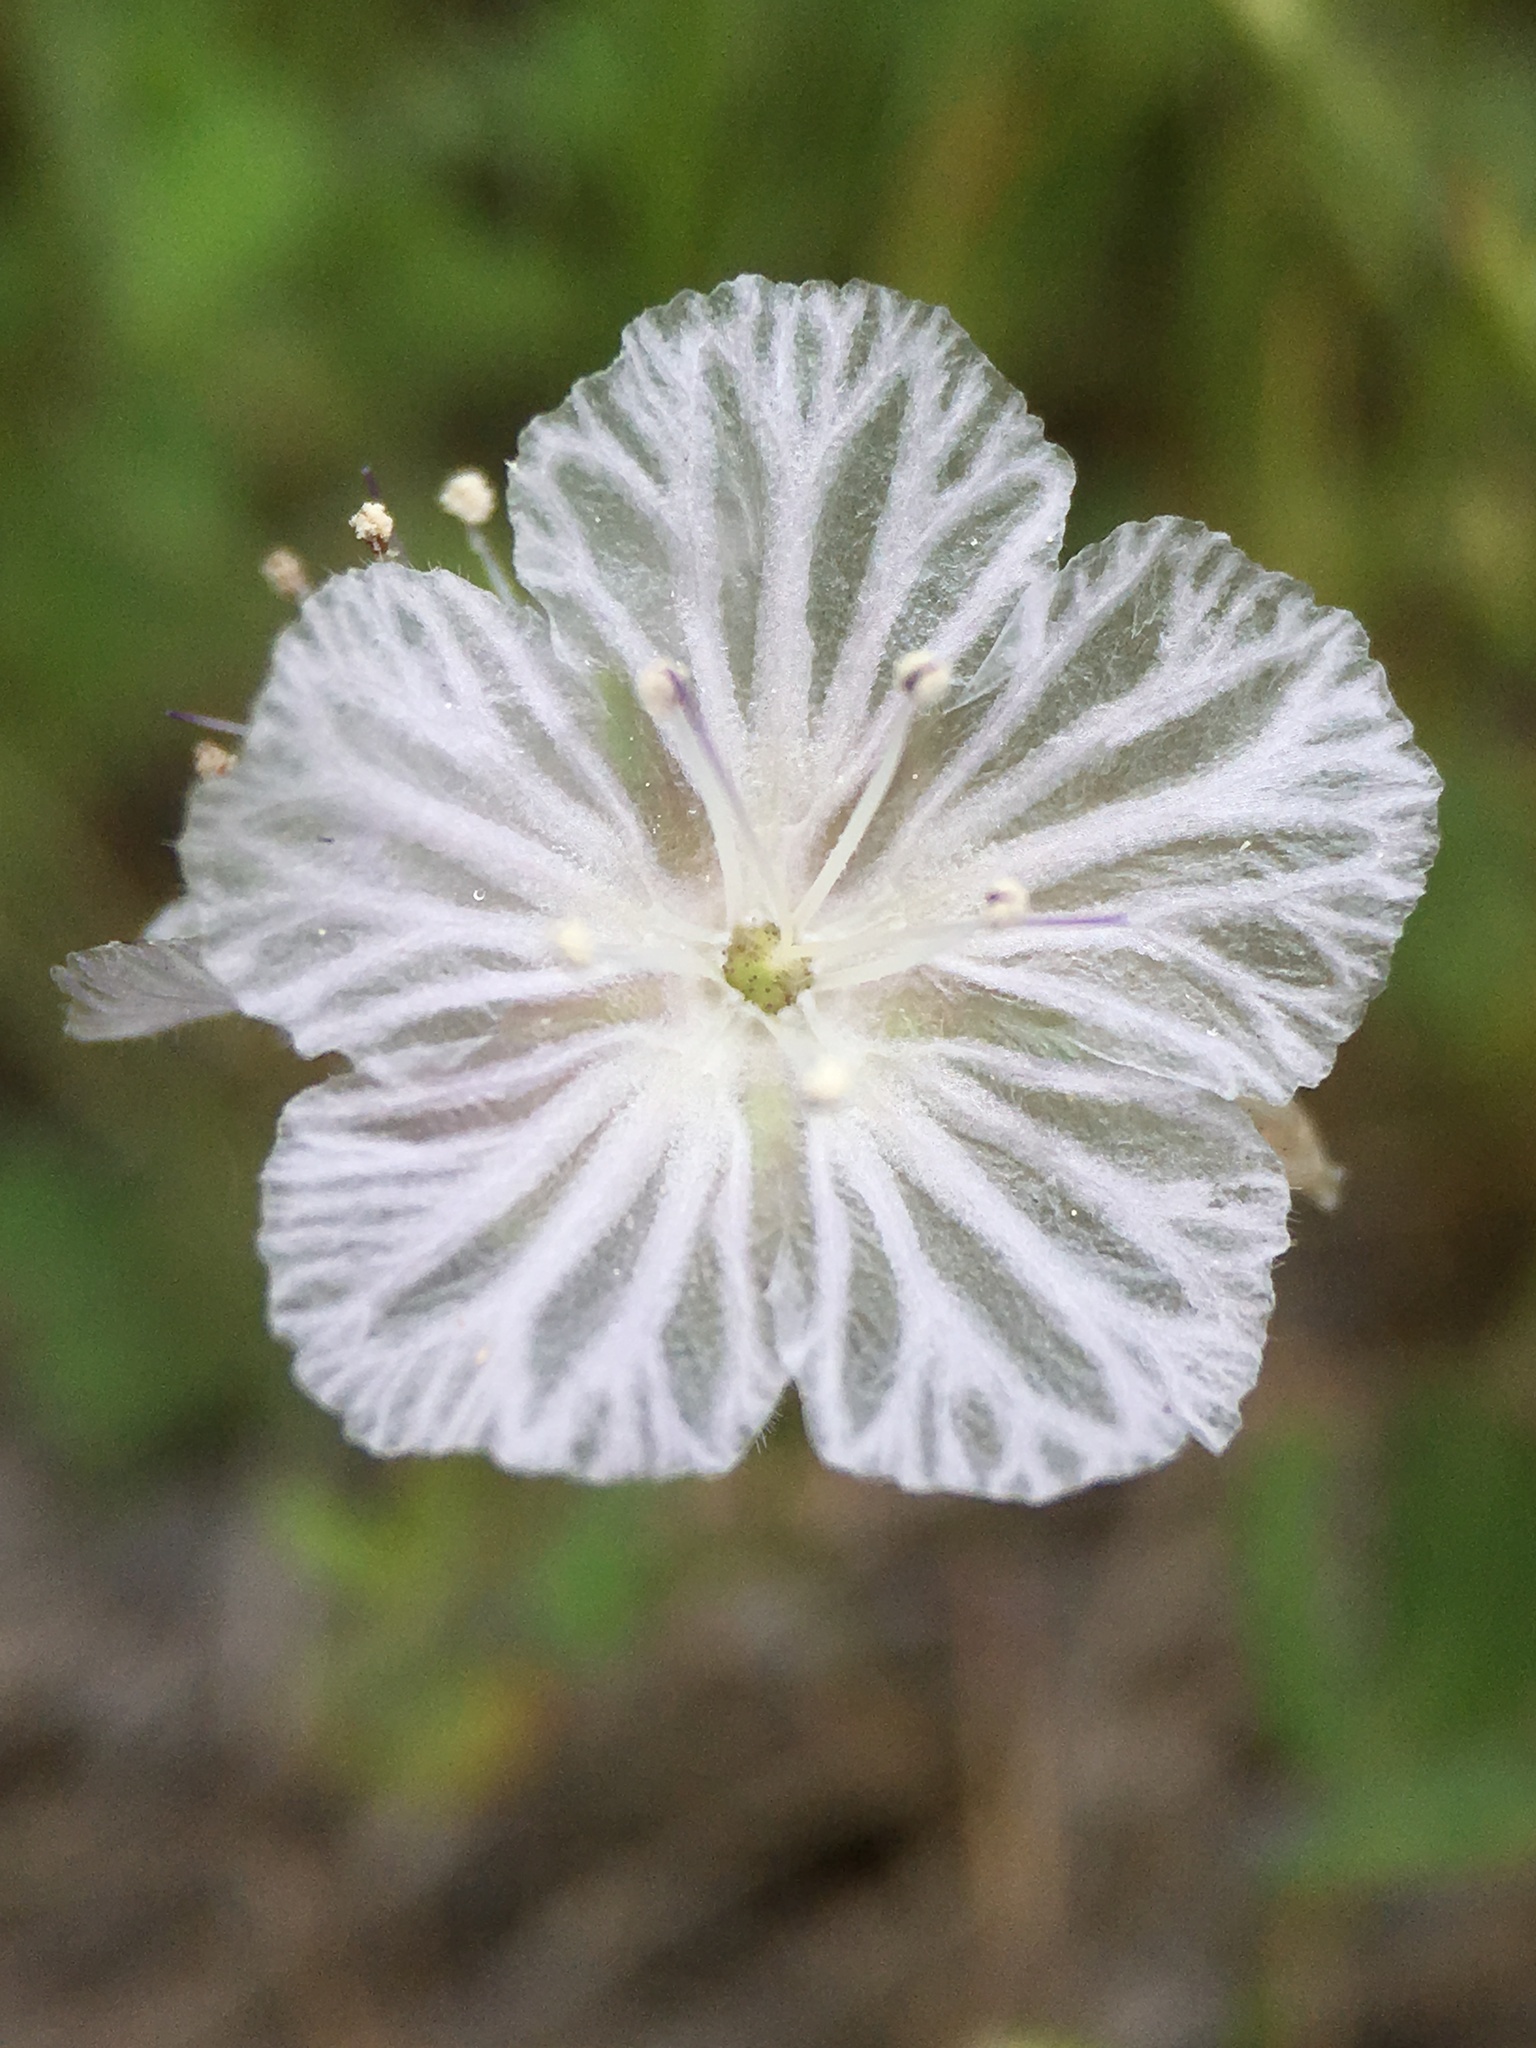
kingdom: Plantae
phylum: Tracheophyta
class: Magnoliopsida
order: Boraginales
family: Hydrophyllaceae
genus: Phacelia
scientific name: Phacelia exilis
